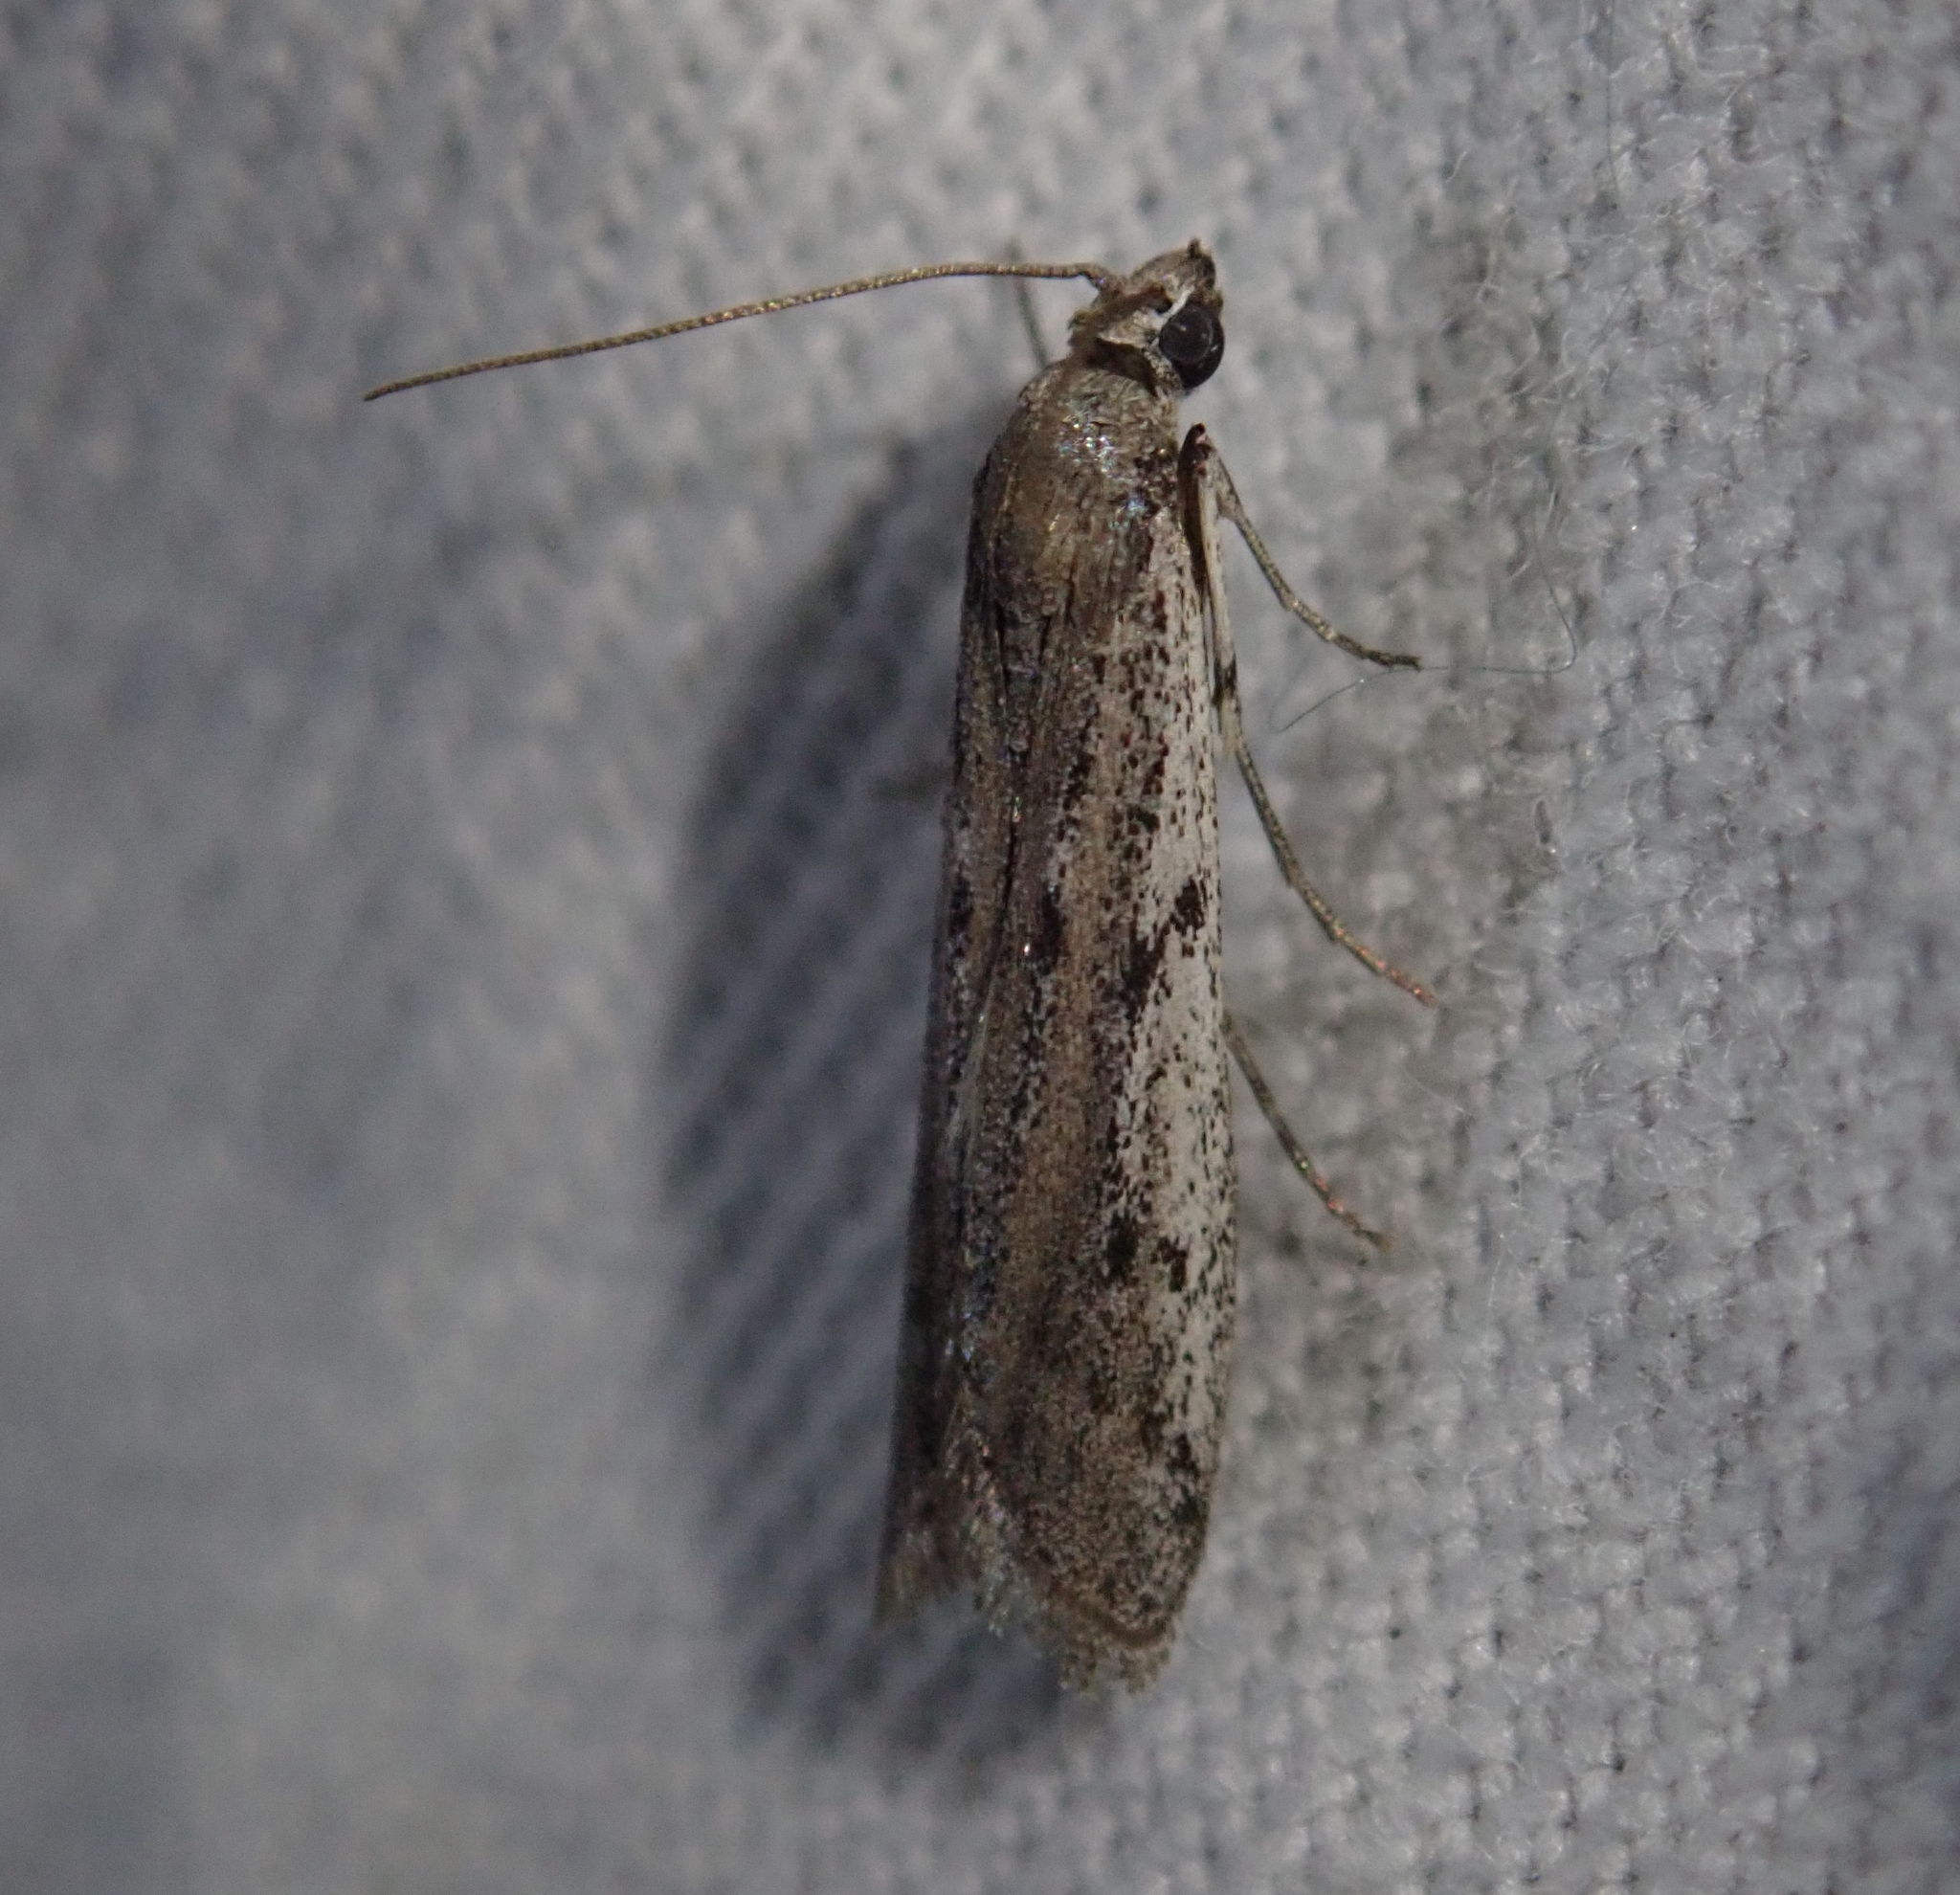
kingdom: Animalia
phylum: Arthropoda
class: Insecta
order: Lepidoptera
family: Pyralidae
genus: Phycitodes
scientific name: Phycitodes binaevella
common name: Ermine knot-horn
